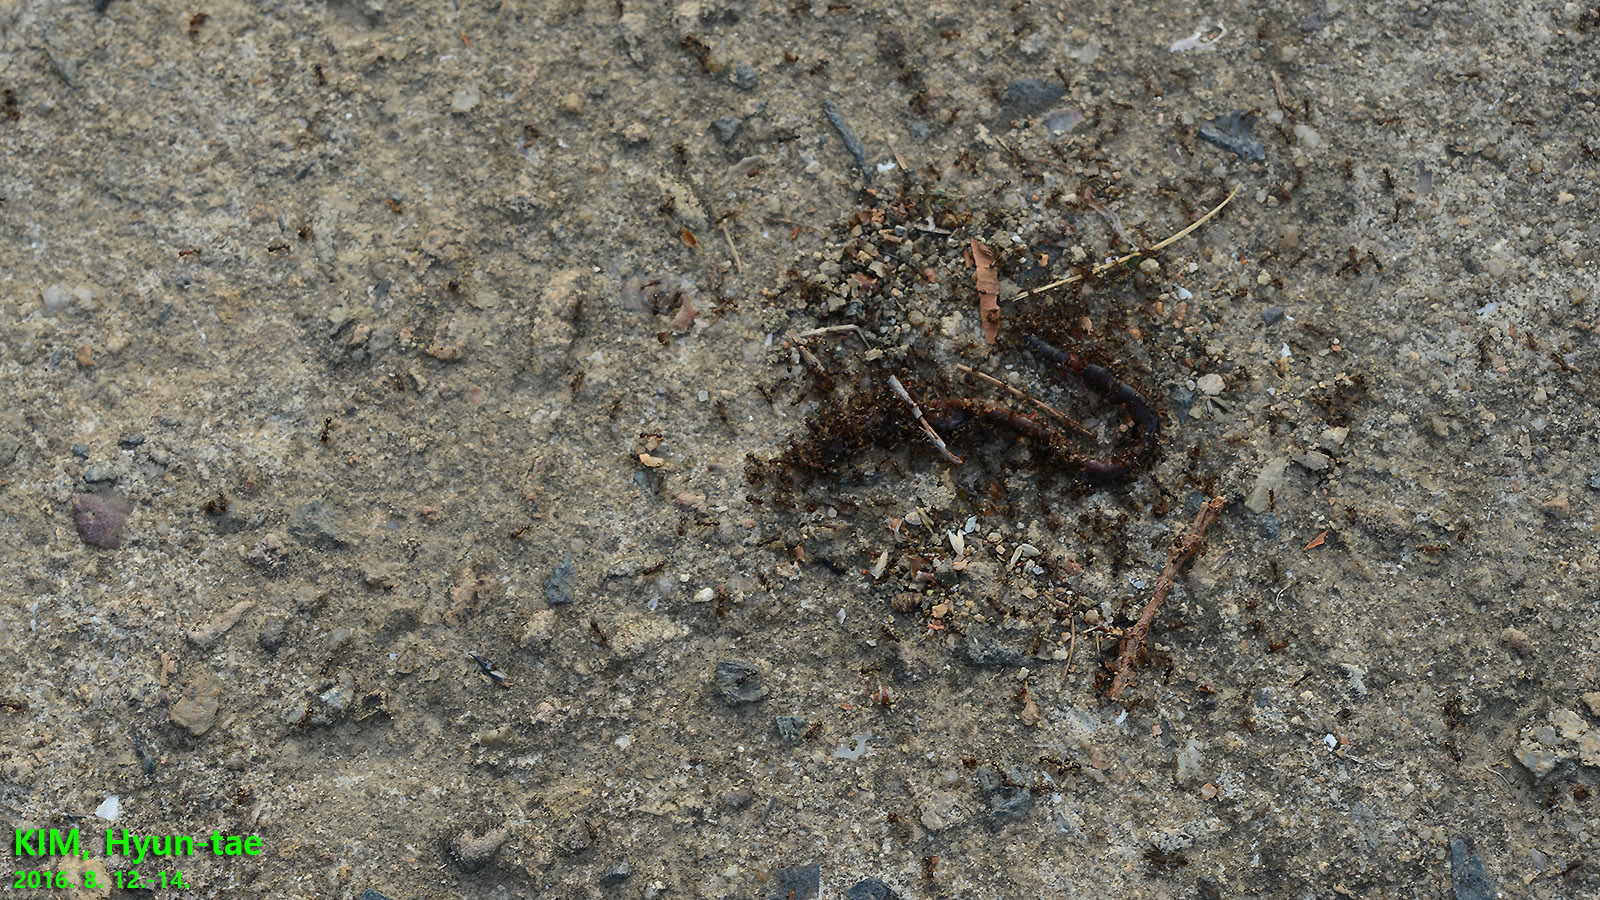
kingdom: Animalia
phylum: Arthropoda
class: Insecta
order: Hymenoptera
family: Formicidae
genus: Tetramorium
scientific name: Tetramorium tsushimae
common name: Ant
